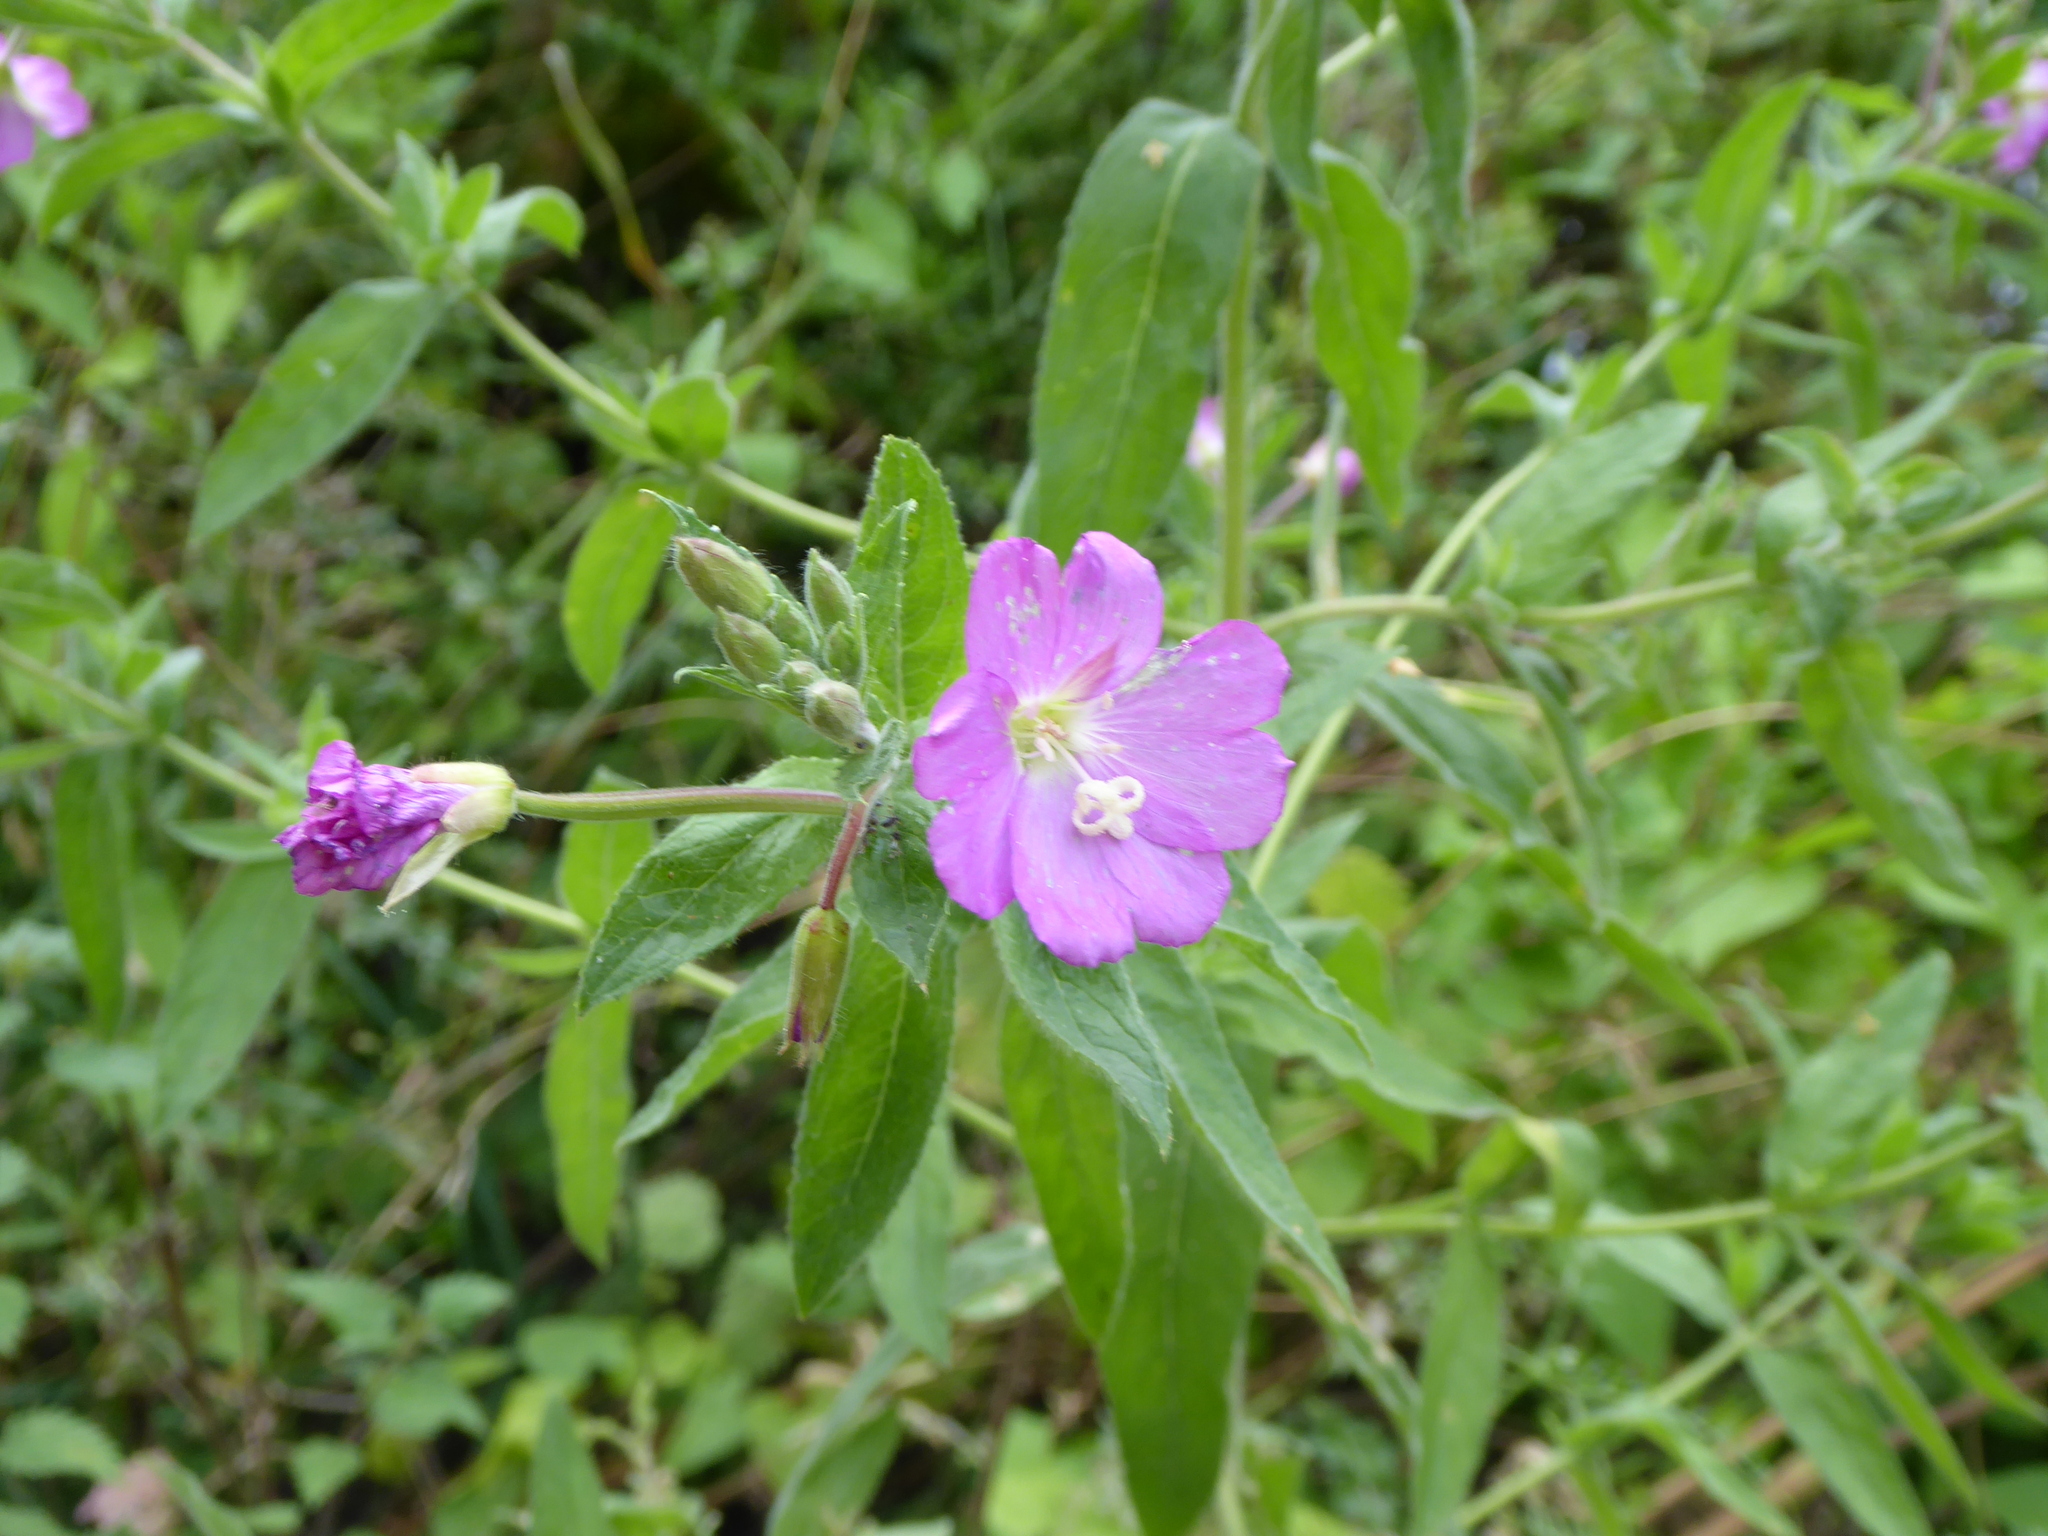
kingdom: Plantae
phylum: Tracheophyta
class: Magnoliopsida
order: Myrtales
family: Onagraceae
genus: Epilobium
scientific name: Epilobium hirsutum
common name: Great willowherb
